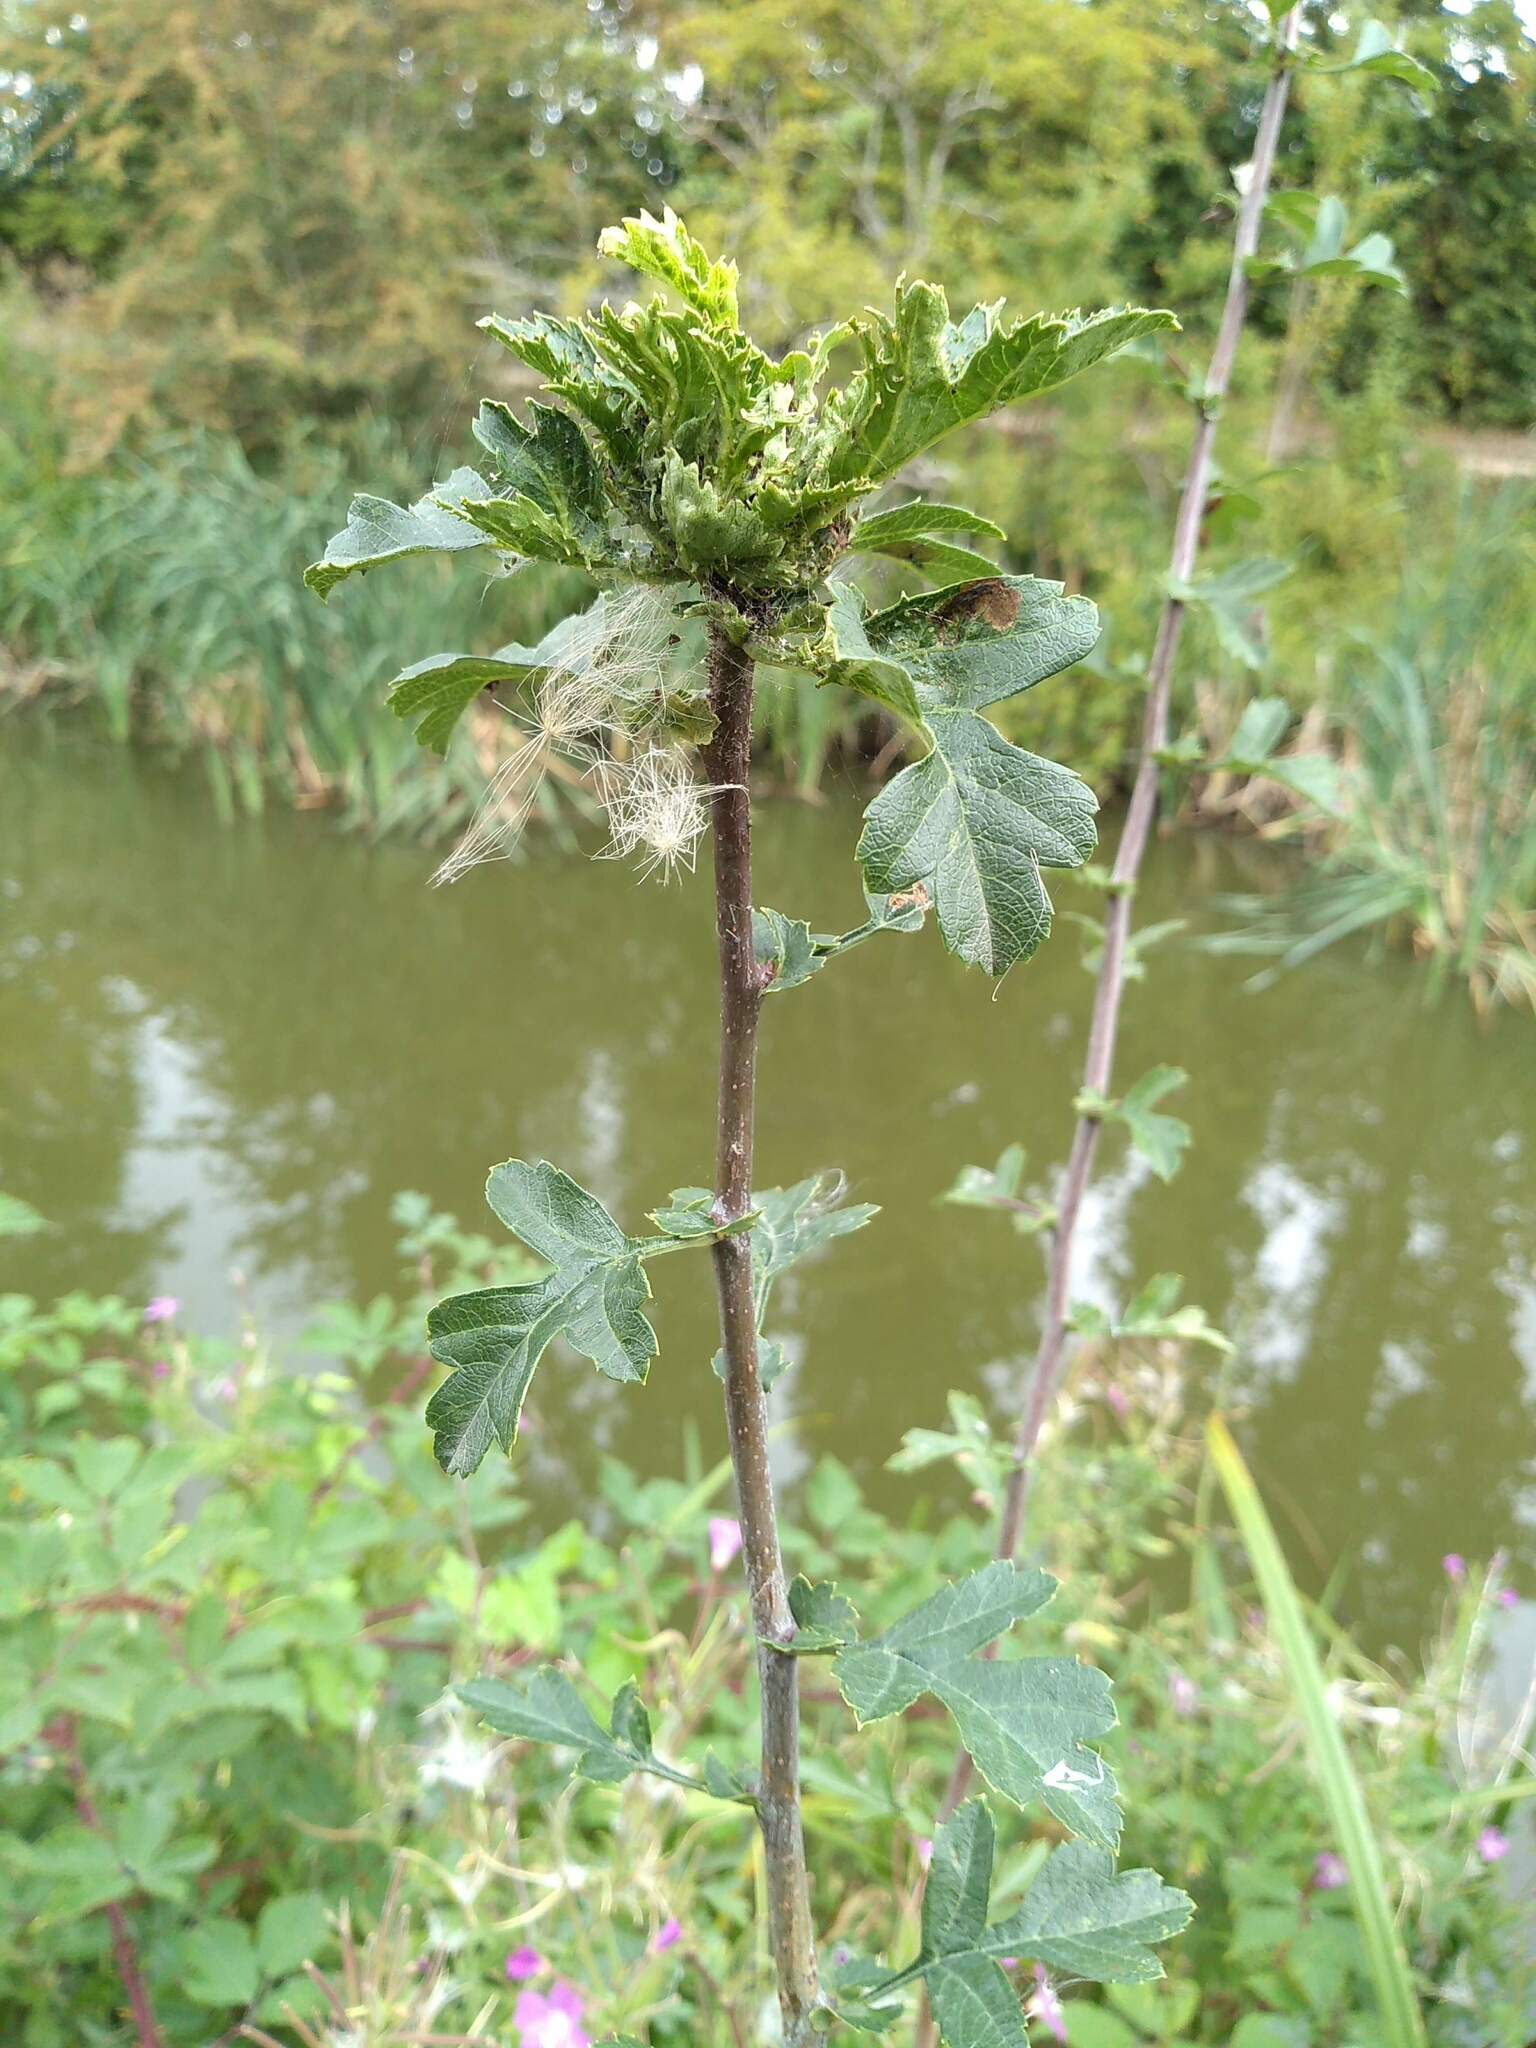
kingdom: Animalia
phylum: Arthropoda
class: Insecta
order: Diptera
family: Cecidomyiidae
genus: Dasineura
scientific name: Dasineura crataegi
